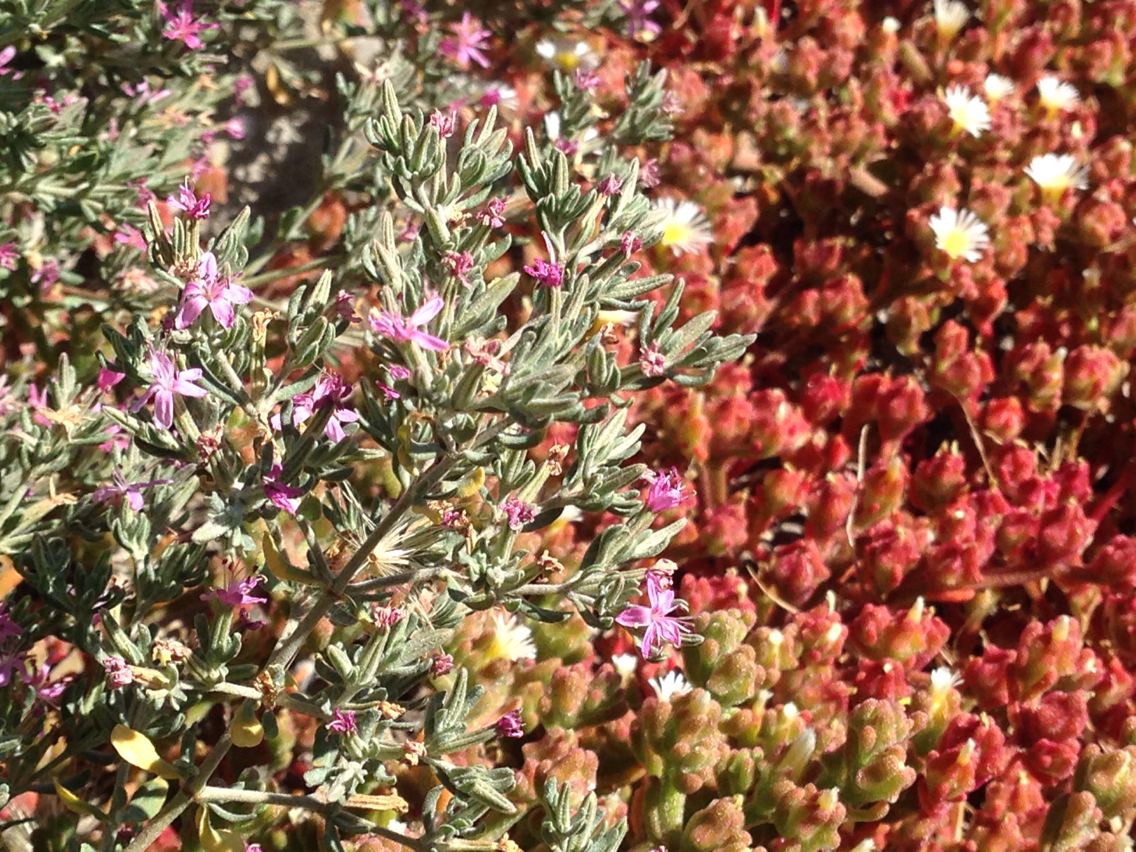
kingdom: Plantae
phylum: Tracheophyta
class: Magnoliopsida
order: Caryophyllales
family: Frankeniaceae
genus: Frankenia
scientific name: Frankenia salina
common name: Alkali seaheath
